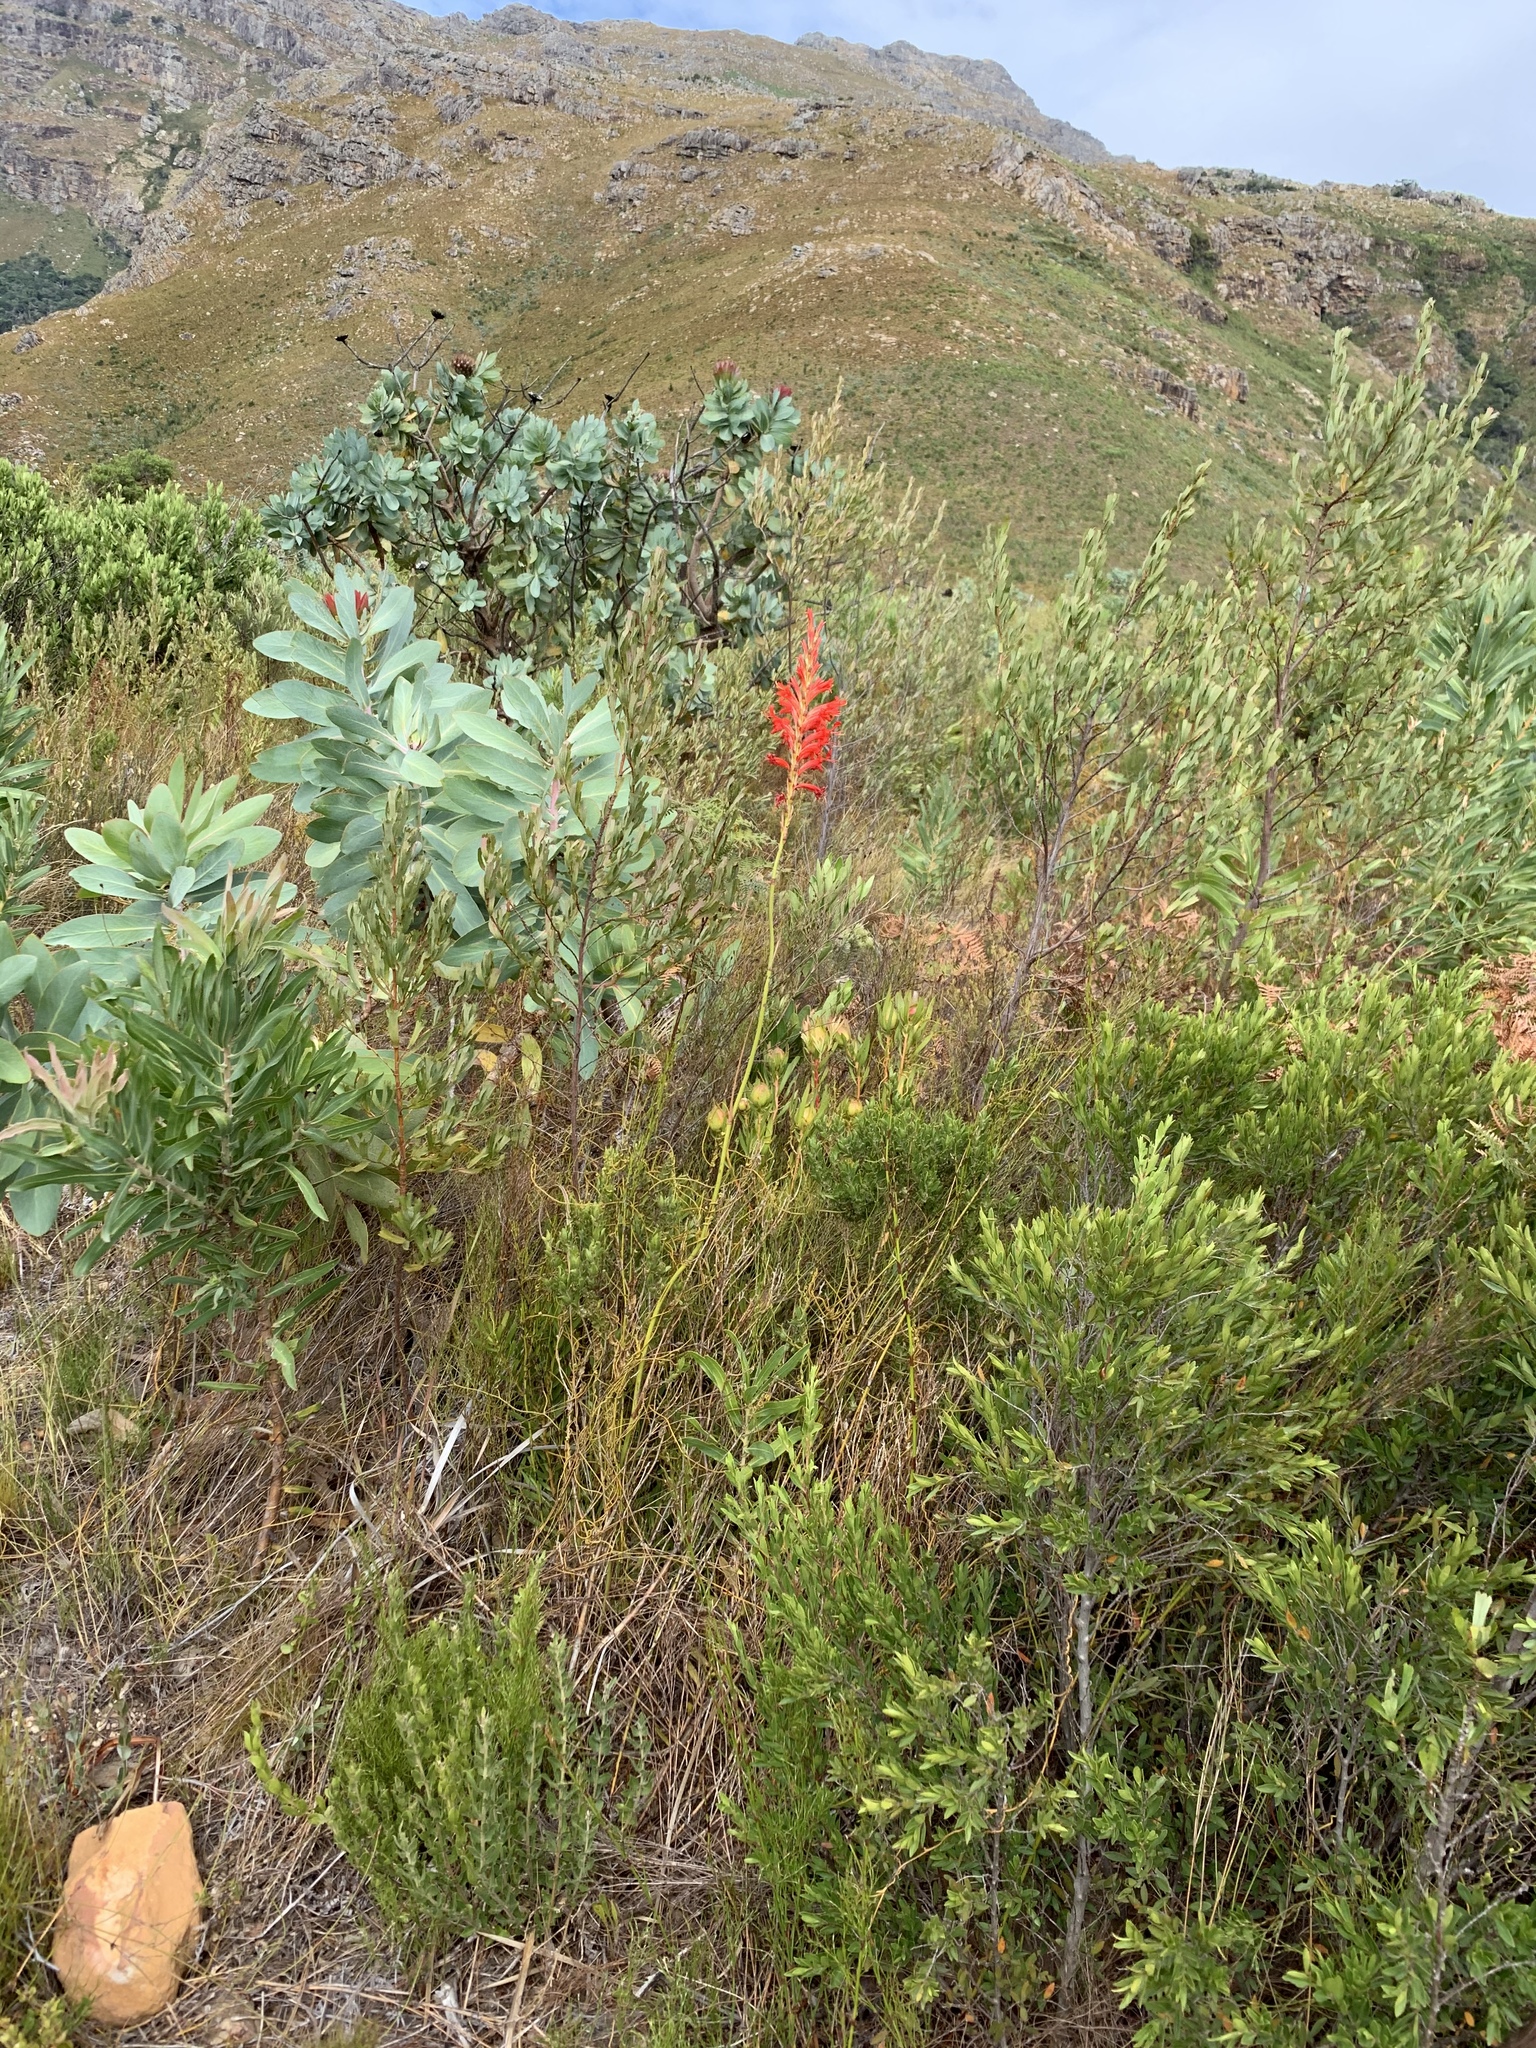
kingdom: Plantae
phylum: Tracheophyta
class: Liliopsida
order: Asparagales
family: Iridaceae
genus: Tritoniopsis
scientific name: Tritoniopsis triticea
